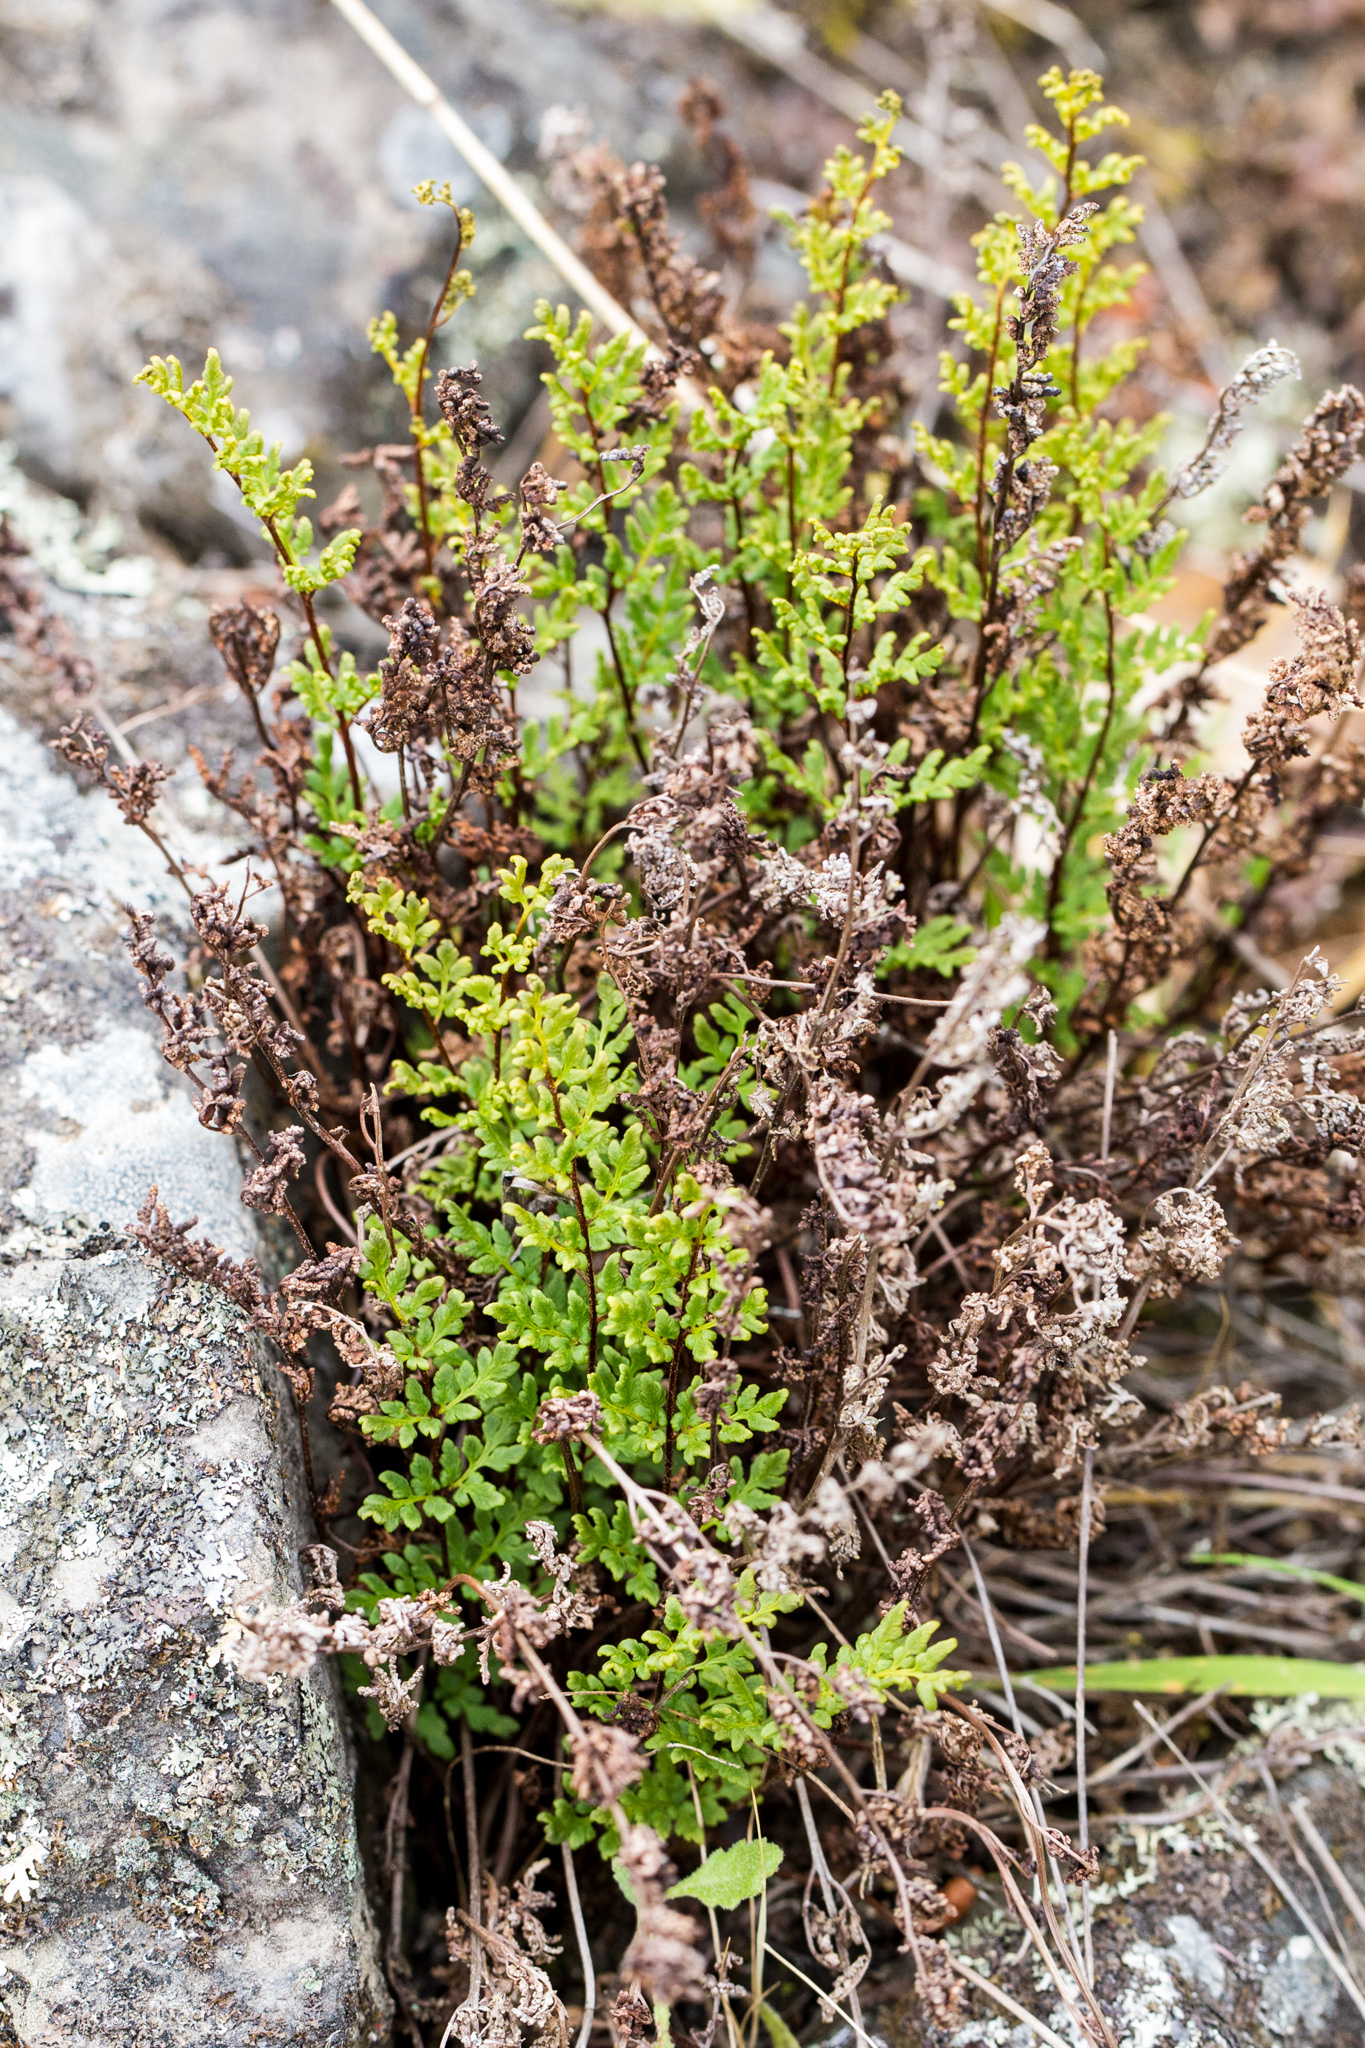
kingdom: Plantae
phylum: Tracheophyta
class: Polypodiopsida
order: Polypodiales
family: Pteridaceae
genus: Cheilanthes
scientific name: Cheilanthes sieberi
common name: Mulga fern
